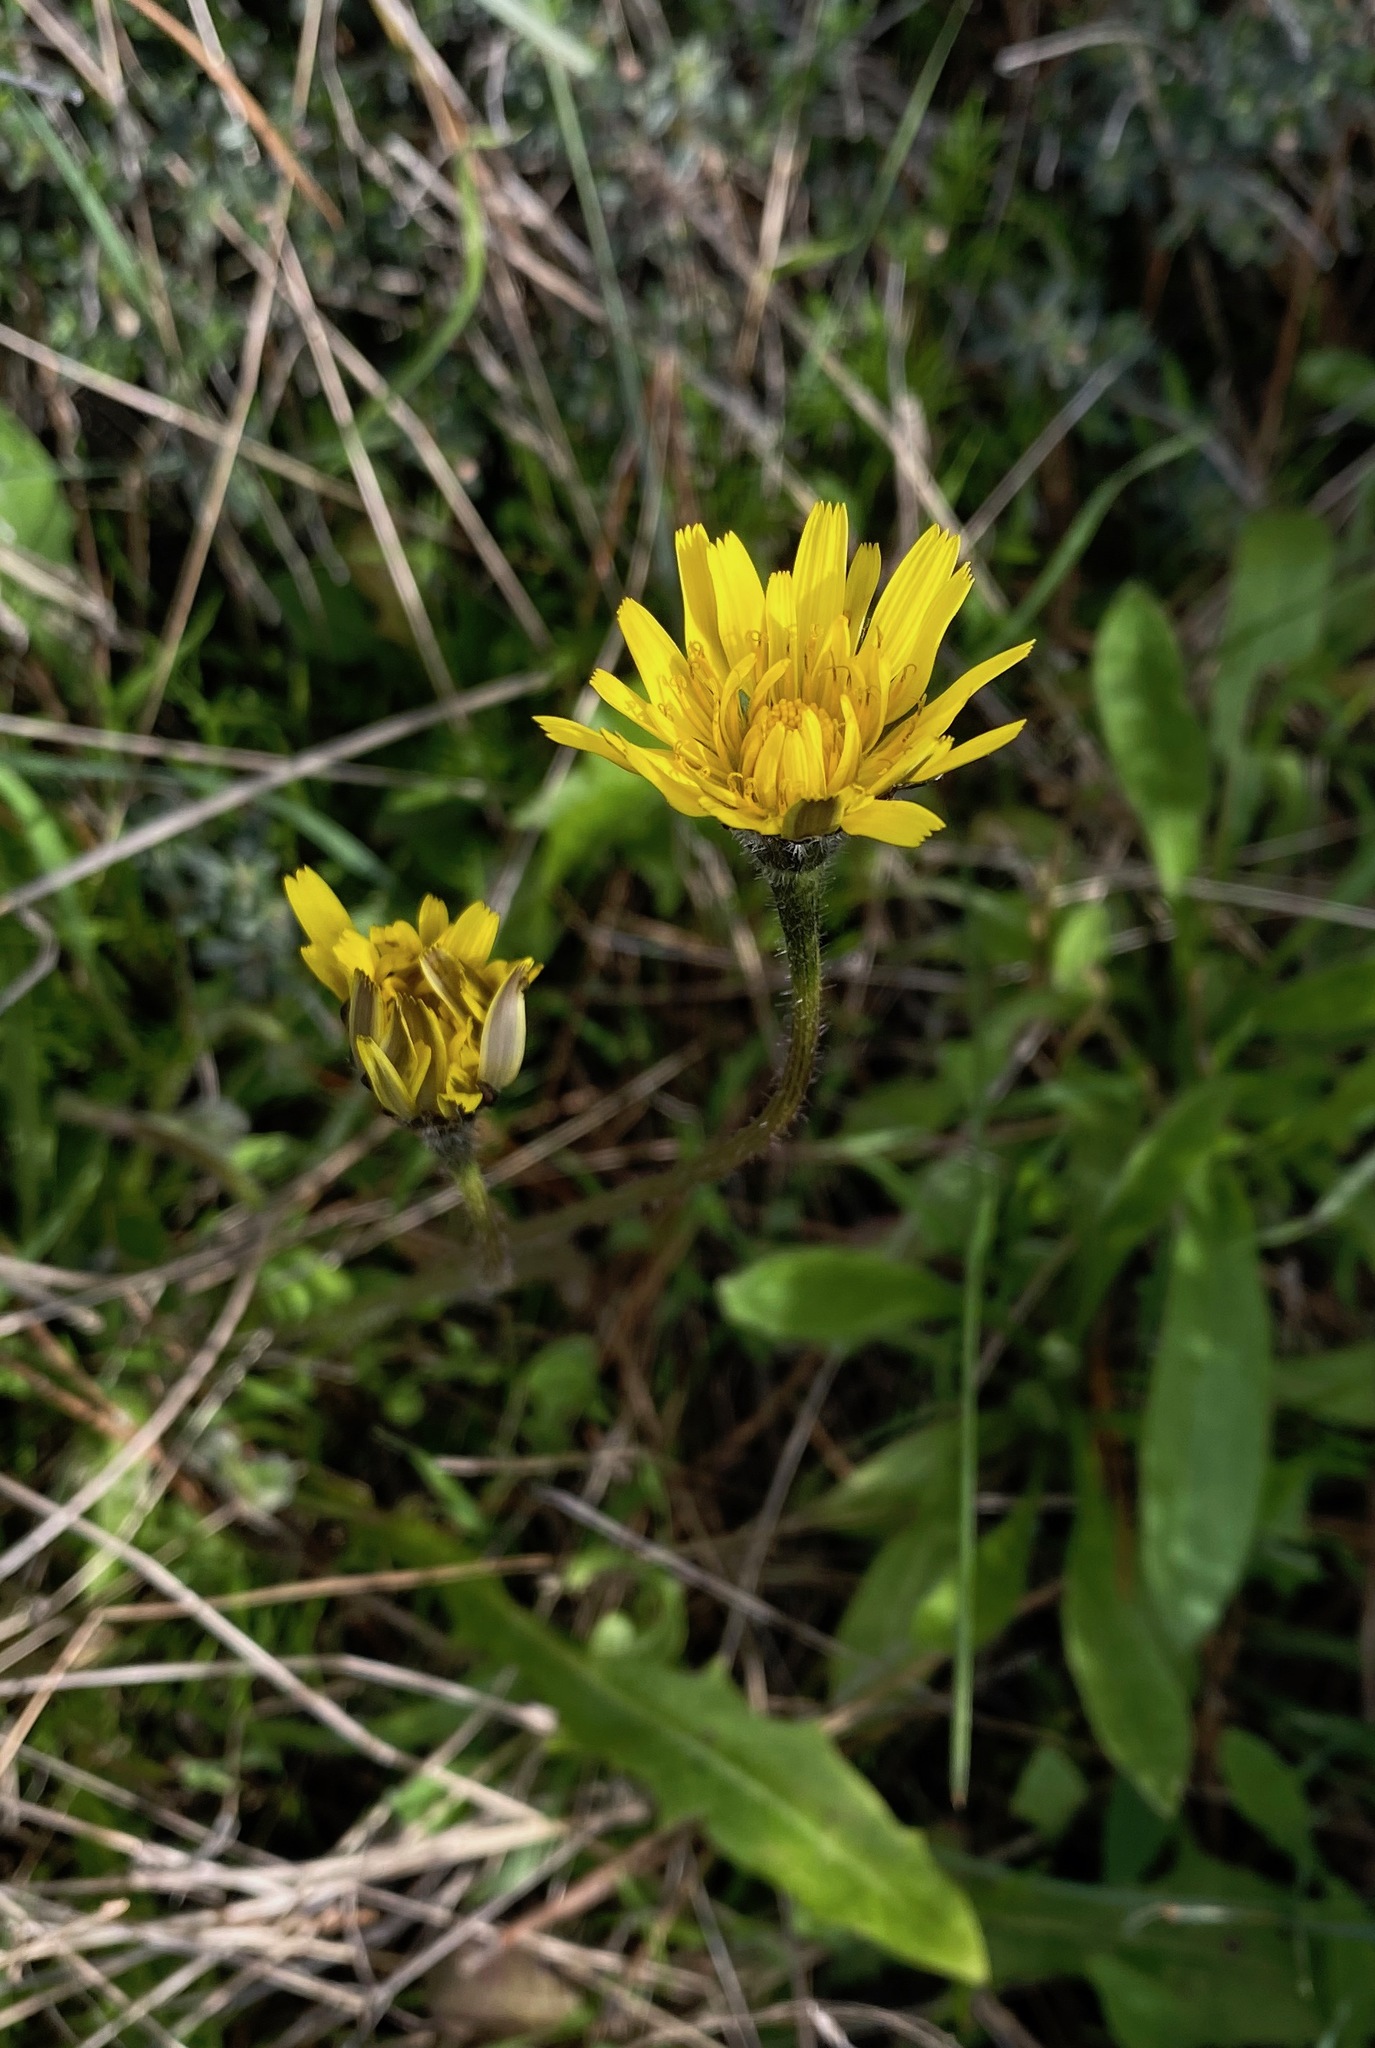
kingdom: Plantae
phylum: Tracheophyta
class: Magnoliopsida
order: Asterales
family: Asteraceae
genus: Leontodon
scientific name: Leontodon tuberosus
